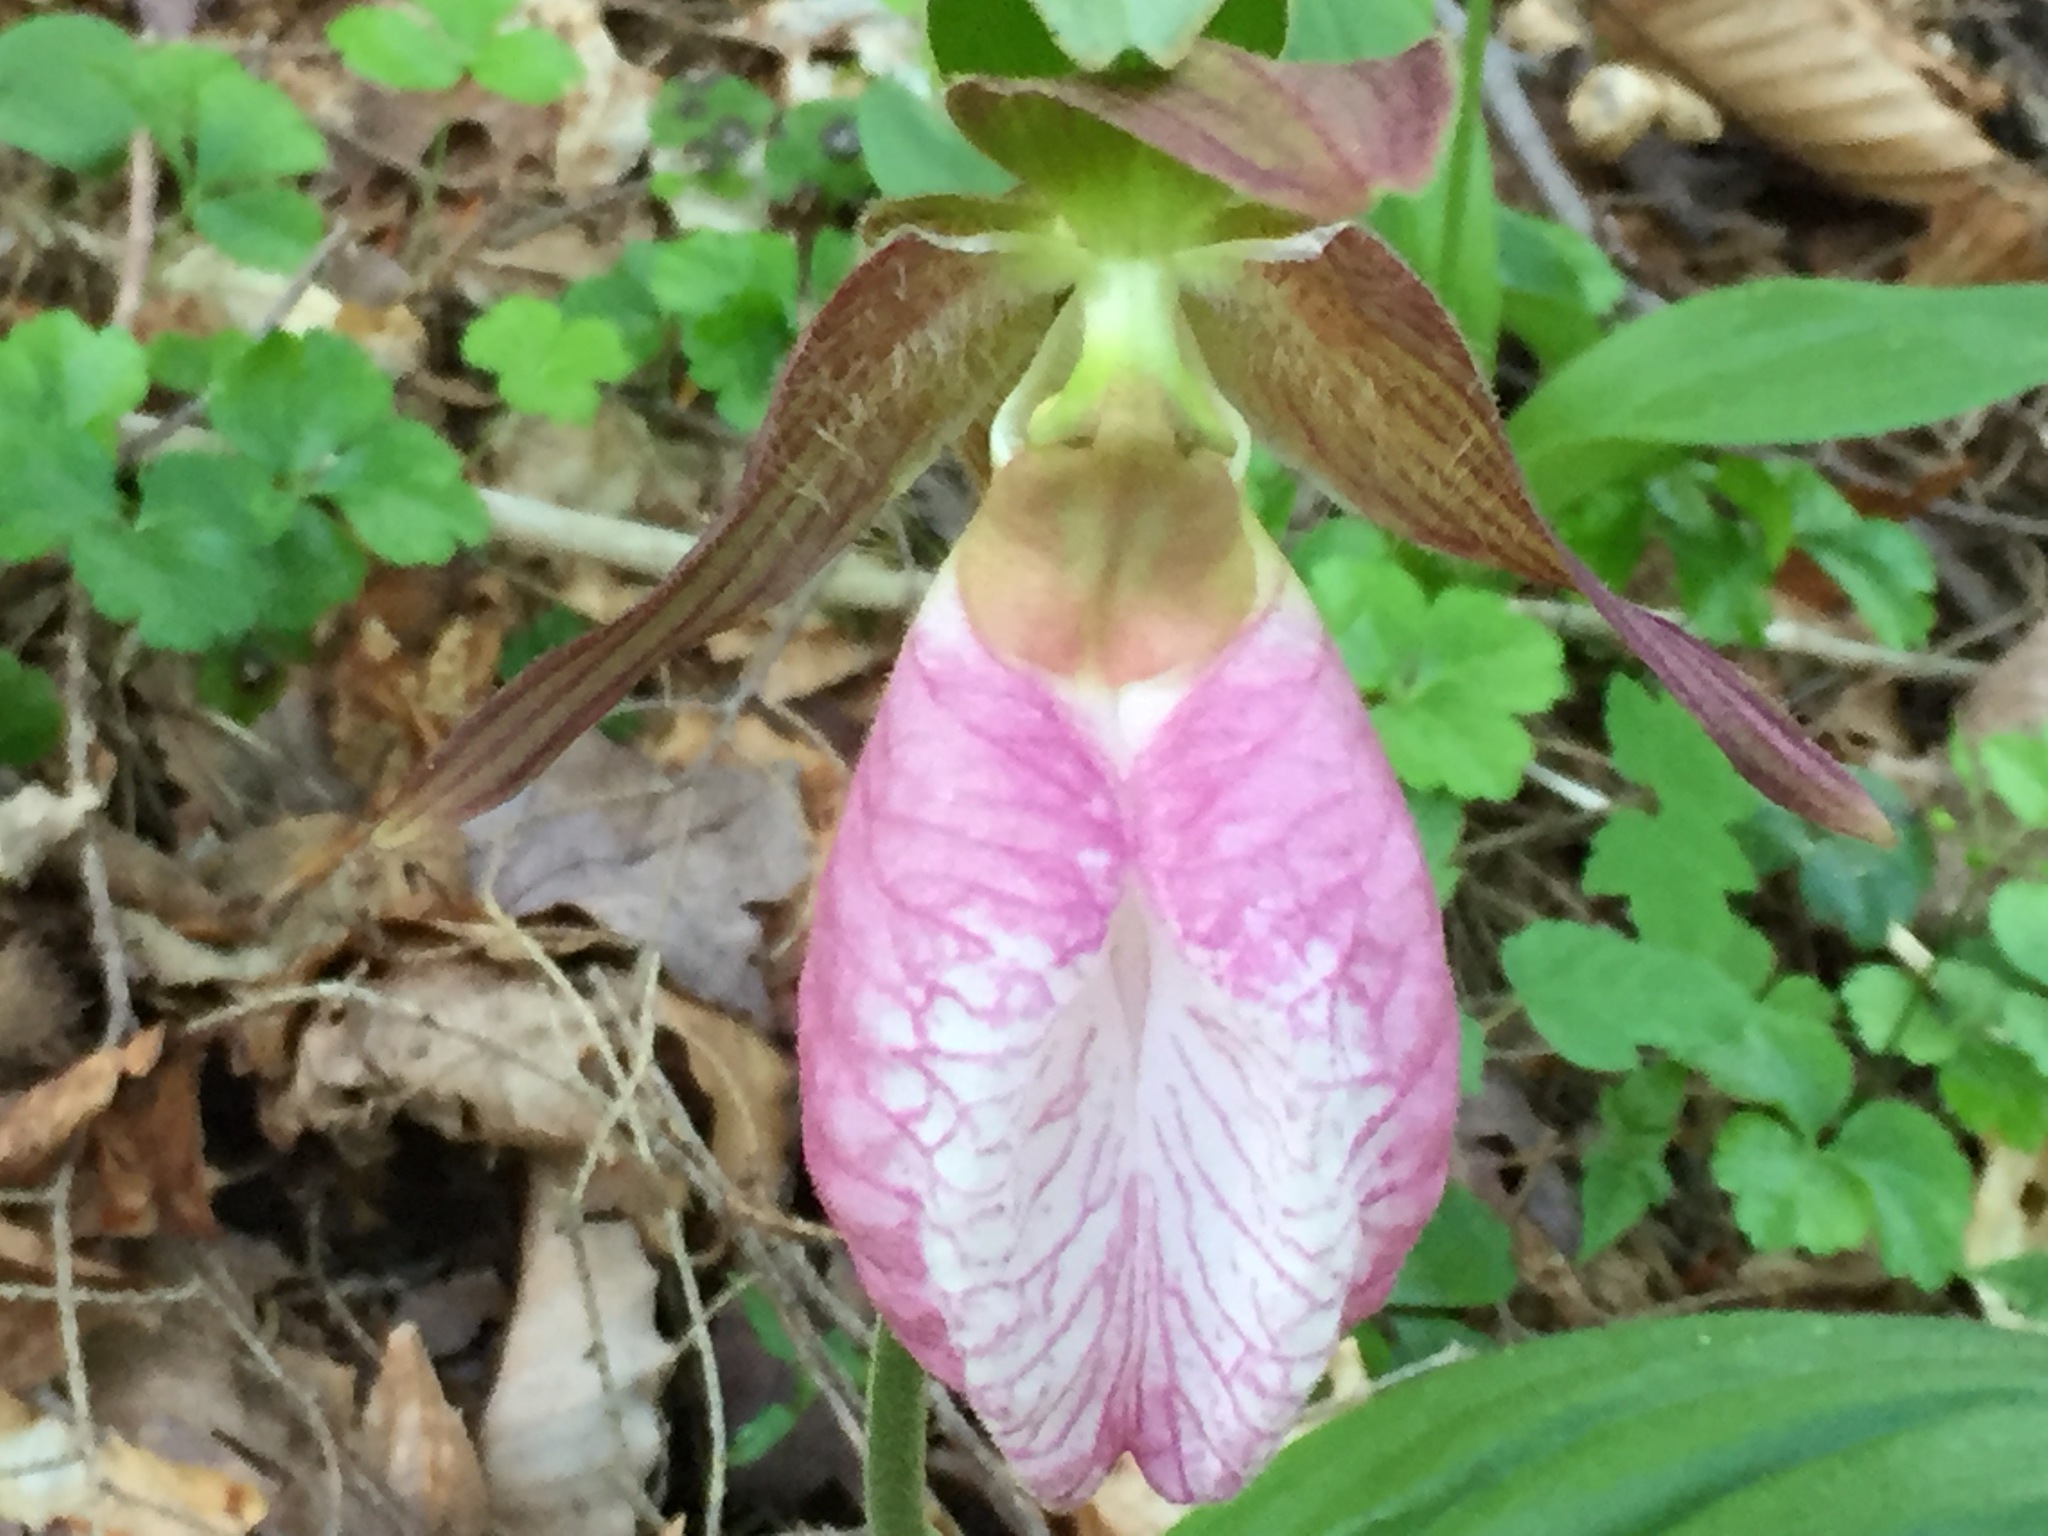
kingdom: Plantae
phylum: Tracheophyta
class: Liliopsida
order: Asparagales
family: Orchidaceae
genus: Cypripedium
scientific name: Cypripedium acaule
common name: Pink lady's-slipper
